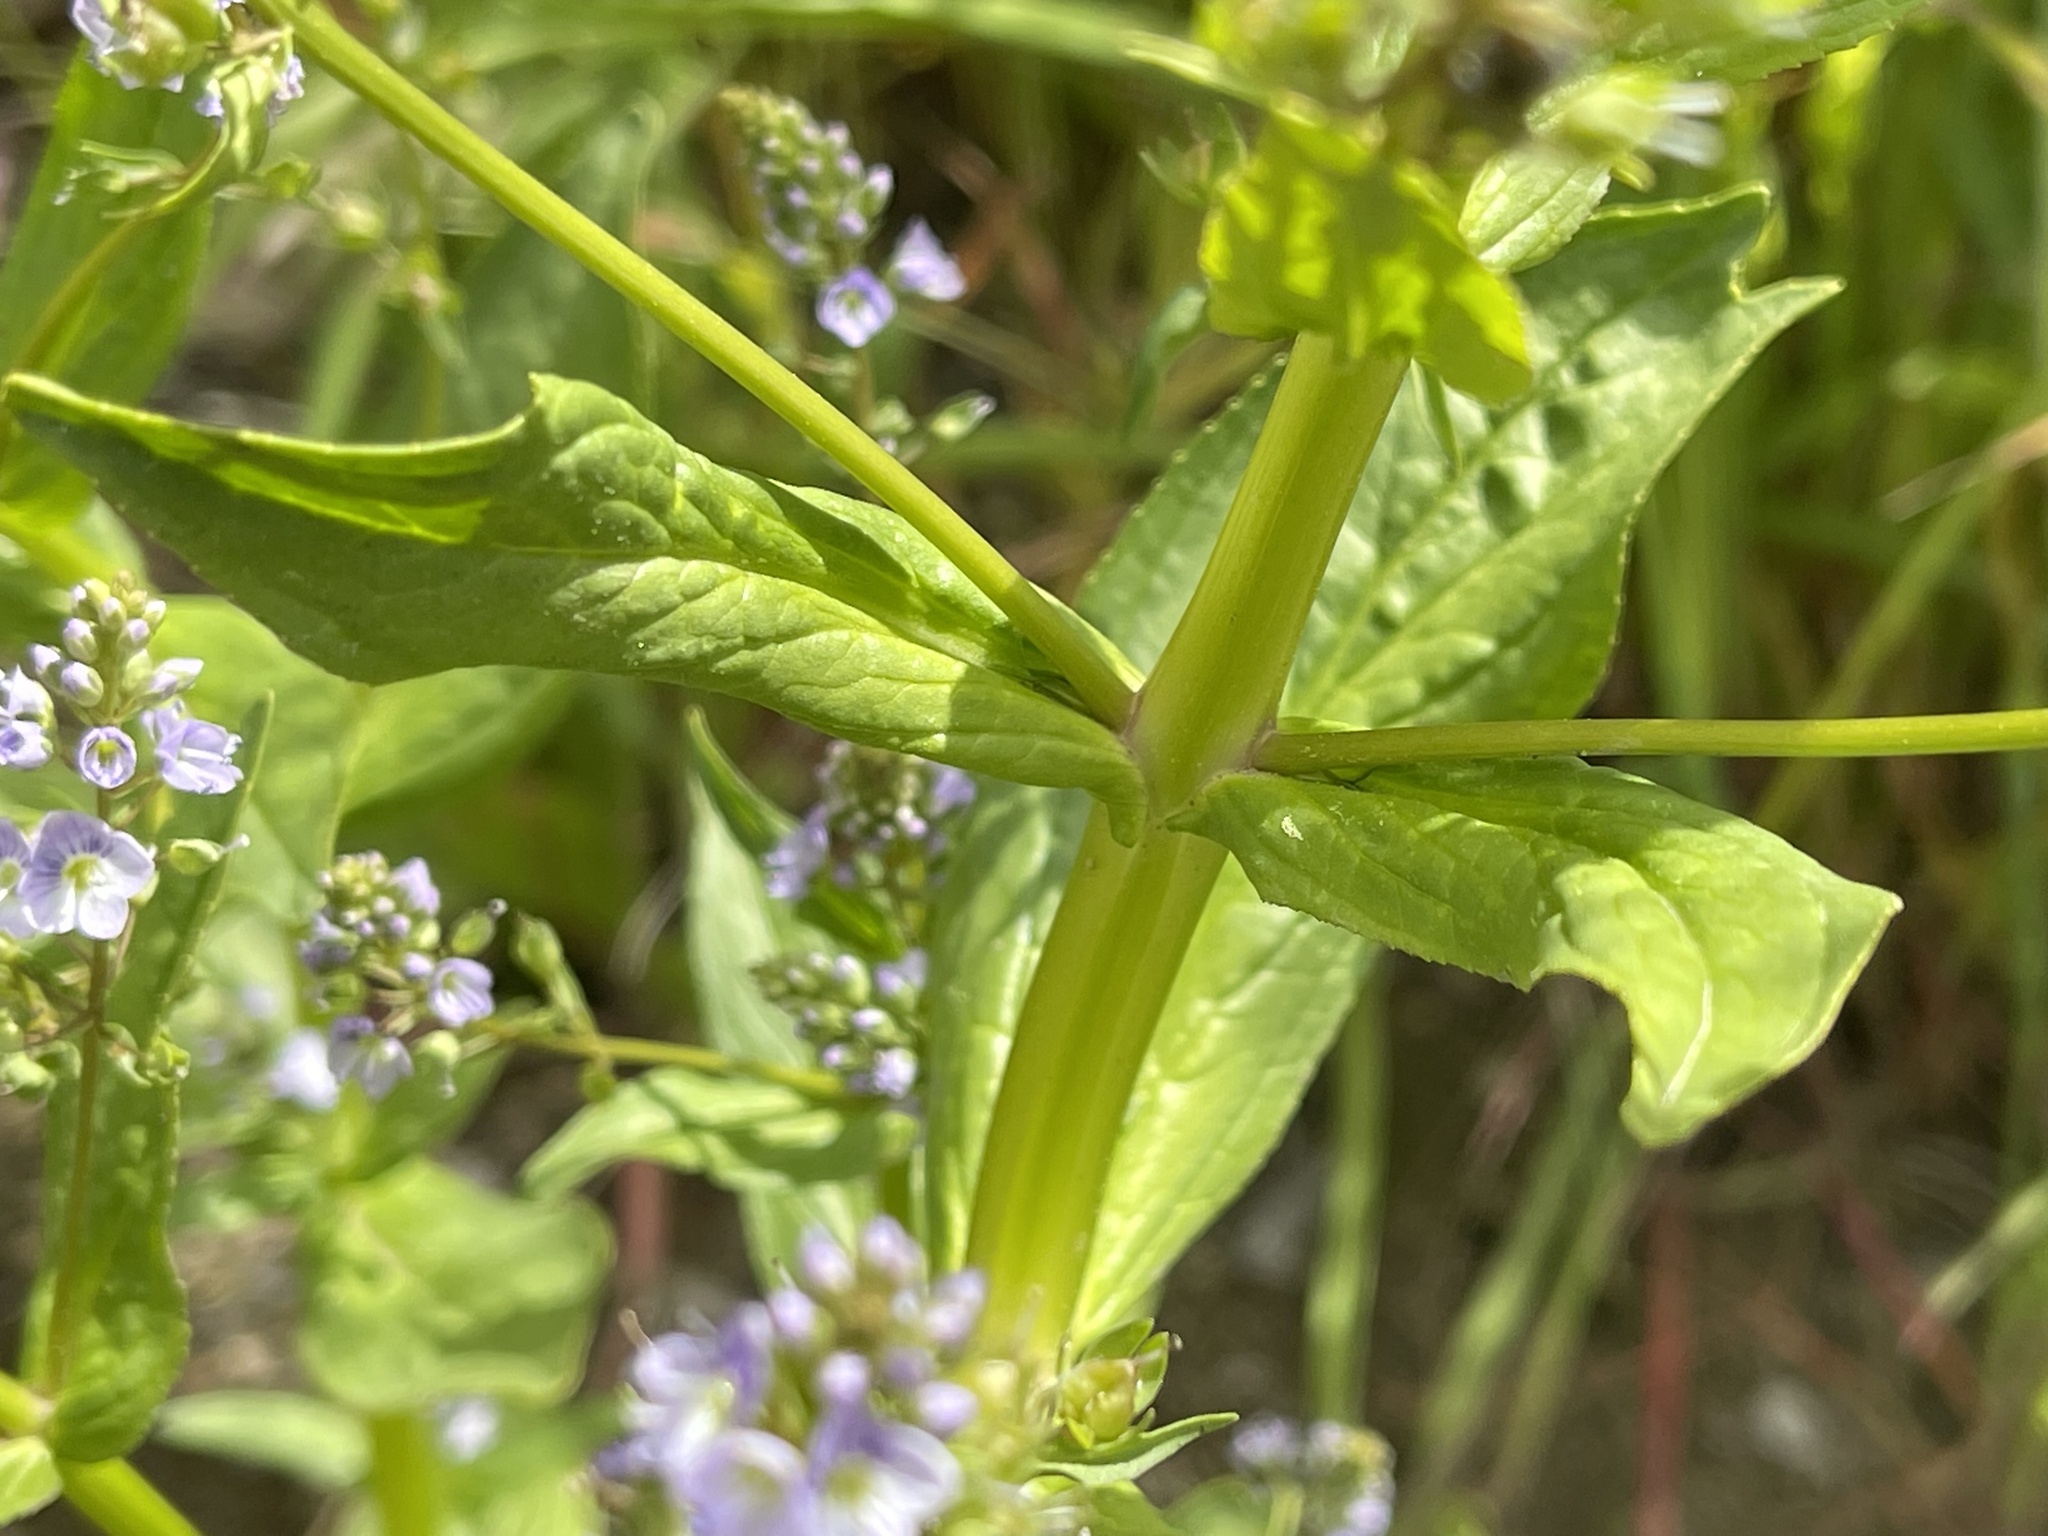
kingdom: Plantae
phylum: Tracheophyta
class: Magnoliopsida
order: Lamiales
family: Plantaginaceae
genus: Veronica
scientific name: Veronica anagallis-aquatica
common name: Water speedwell
